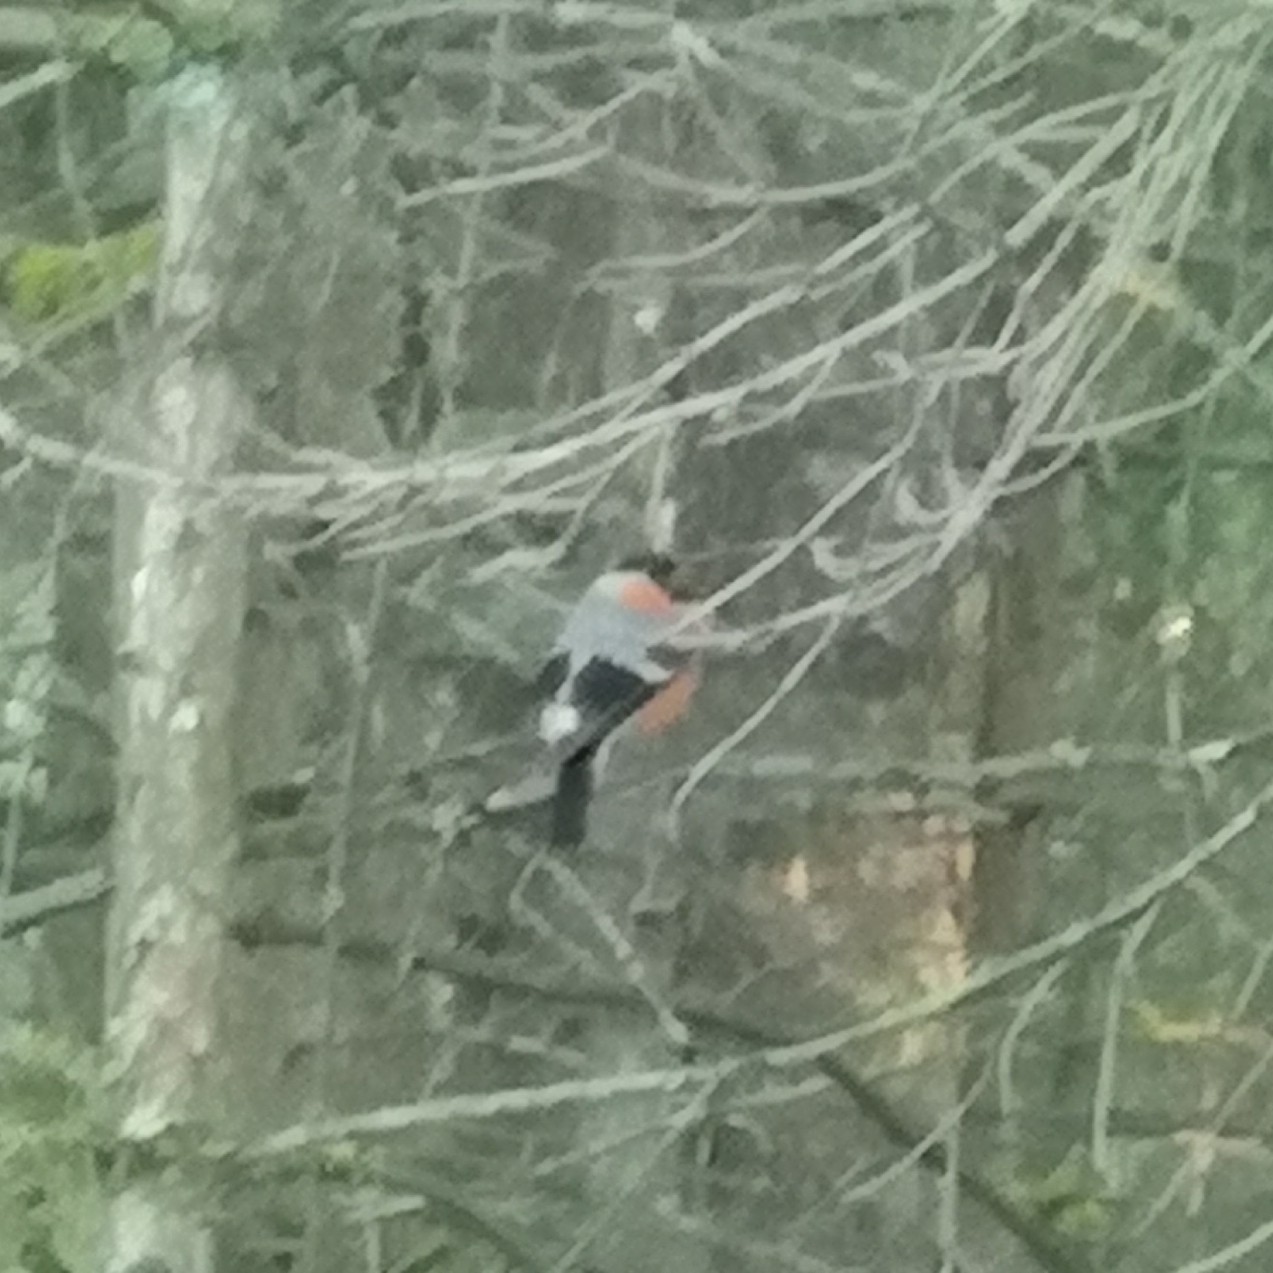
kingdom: Animalia
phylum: Chordata
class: Aves
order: Passeriformes
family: Fringillidae
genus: Pyrrhula
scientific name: Pyrrhula pyrrhula
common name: Eurasian bullfinch
